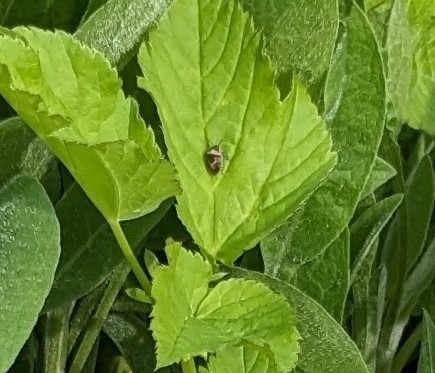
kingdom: Animalia
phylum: Arthropoda
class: Insecta
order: Hemiptera
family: Pentatomidae
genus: Eysarcoris
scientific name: Eysarcoris venustissimus
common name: Woundwort shieldbug
